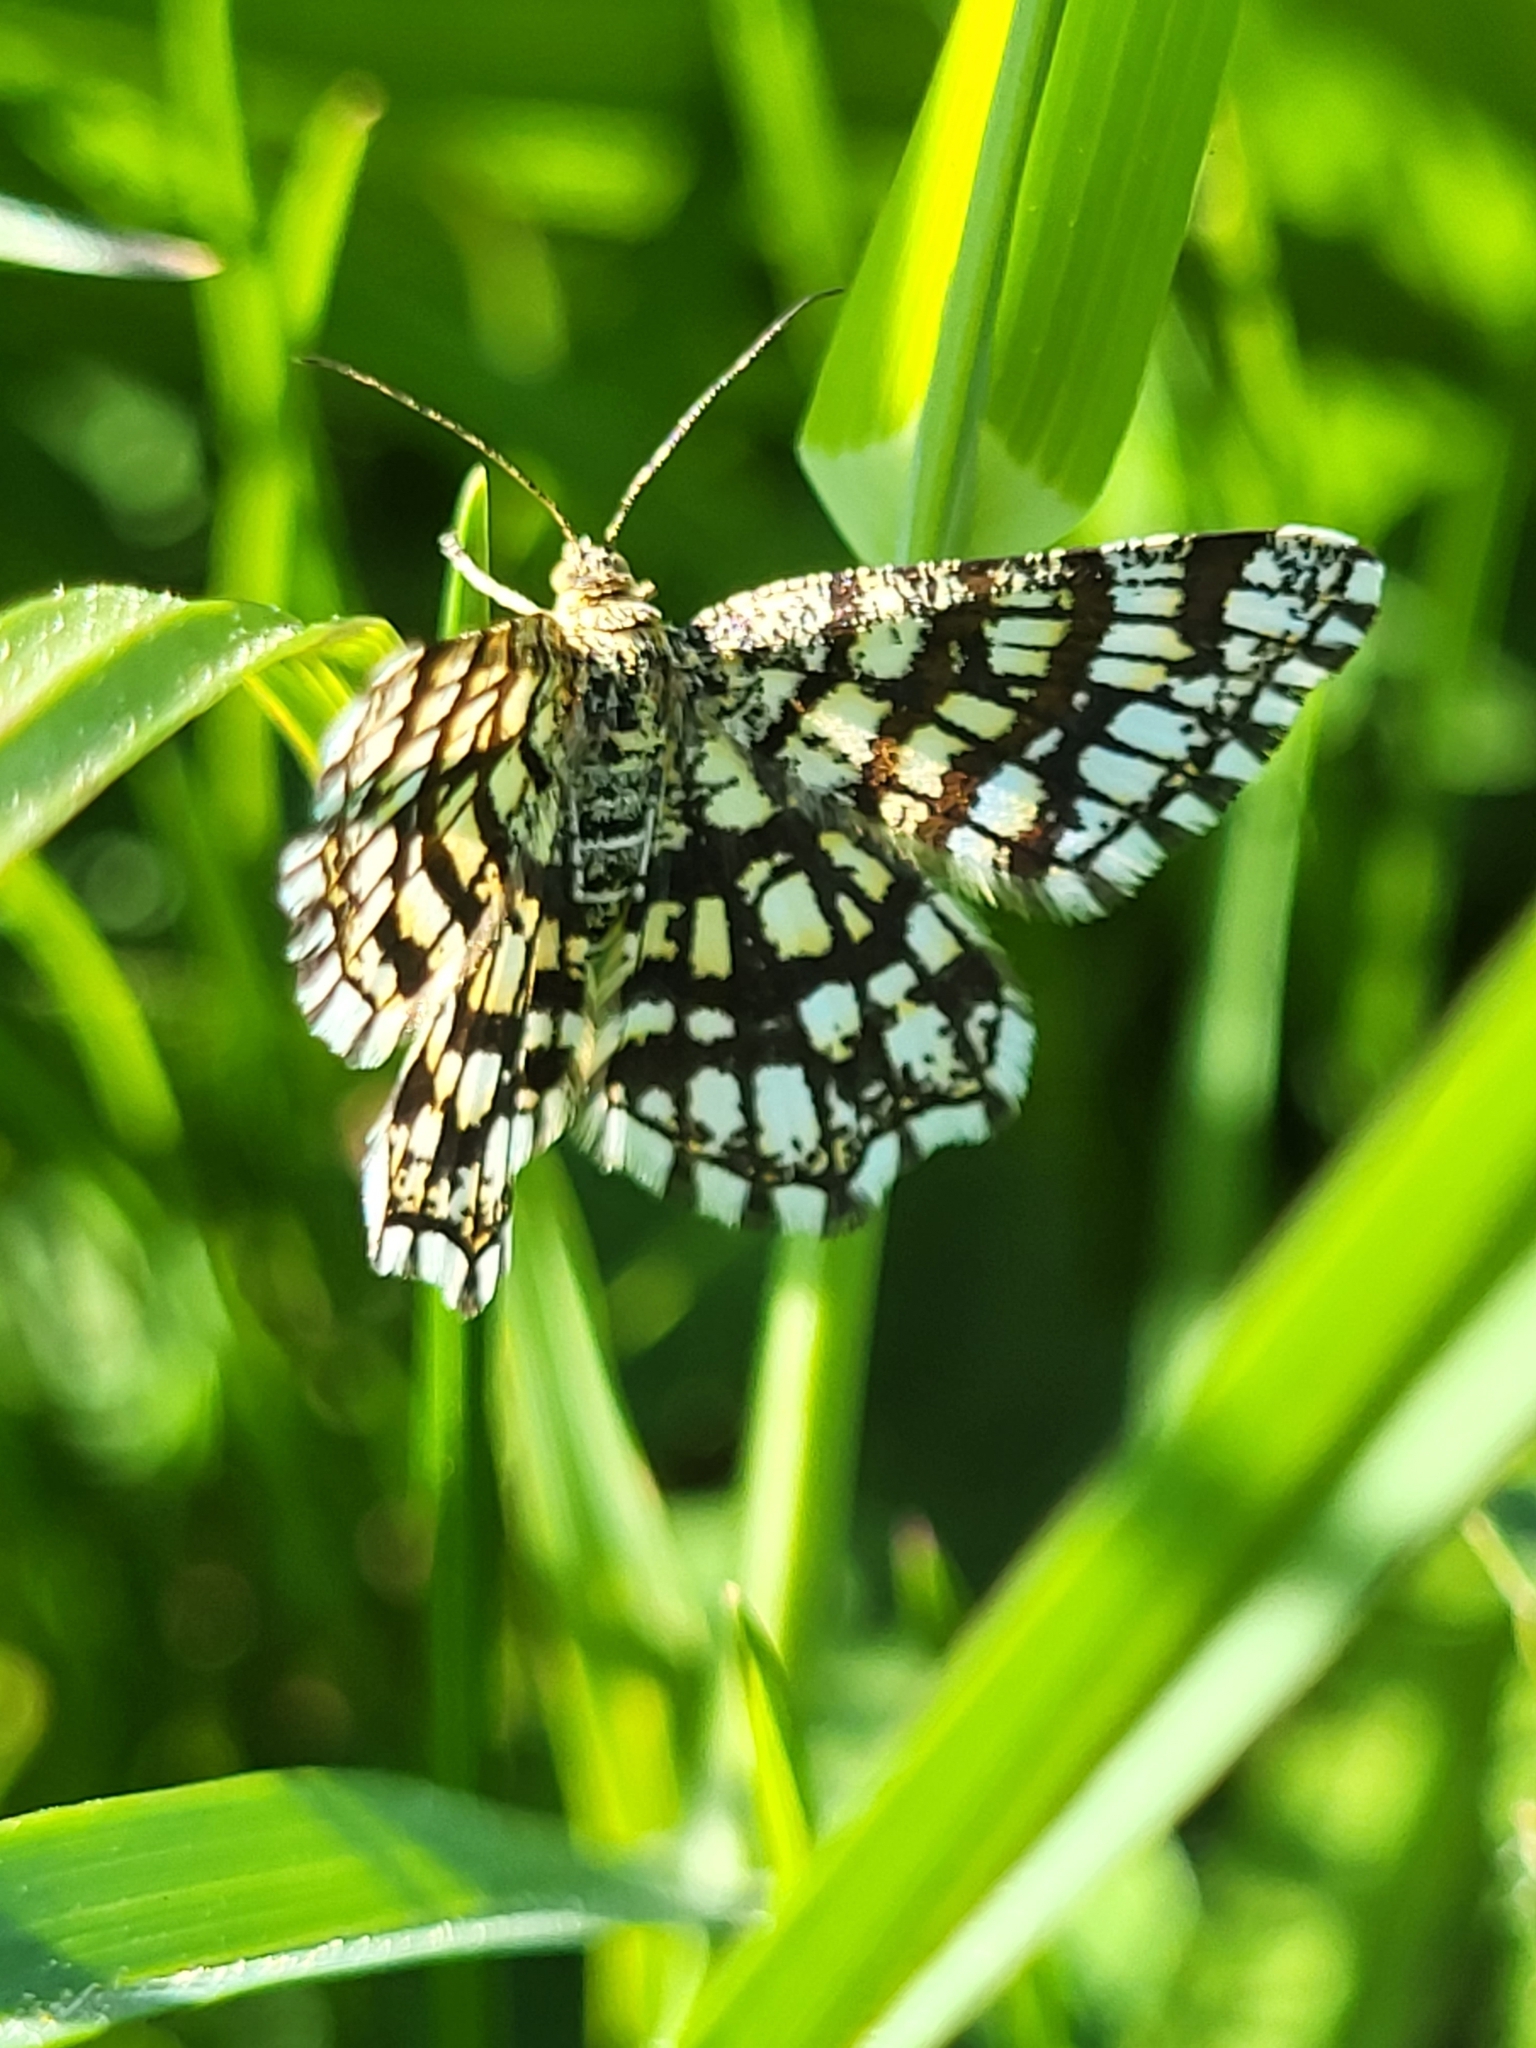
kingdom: Animalia
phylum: Arthropoda
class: Insecta
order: Lepidoptera
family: Geometridae
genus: Chiasmia
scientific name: Chiasmia clathrata
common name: Latticed heath
